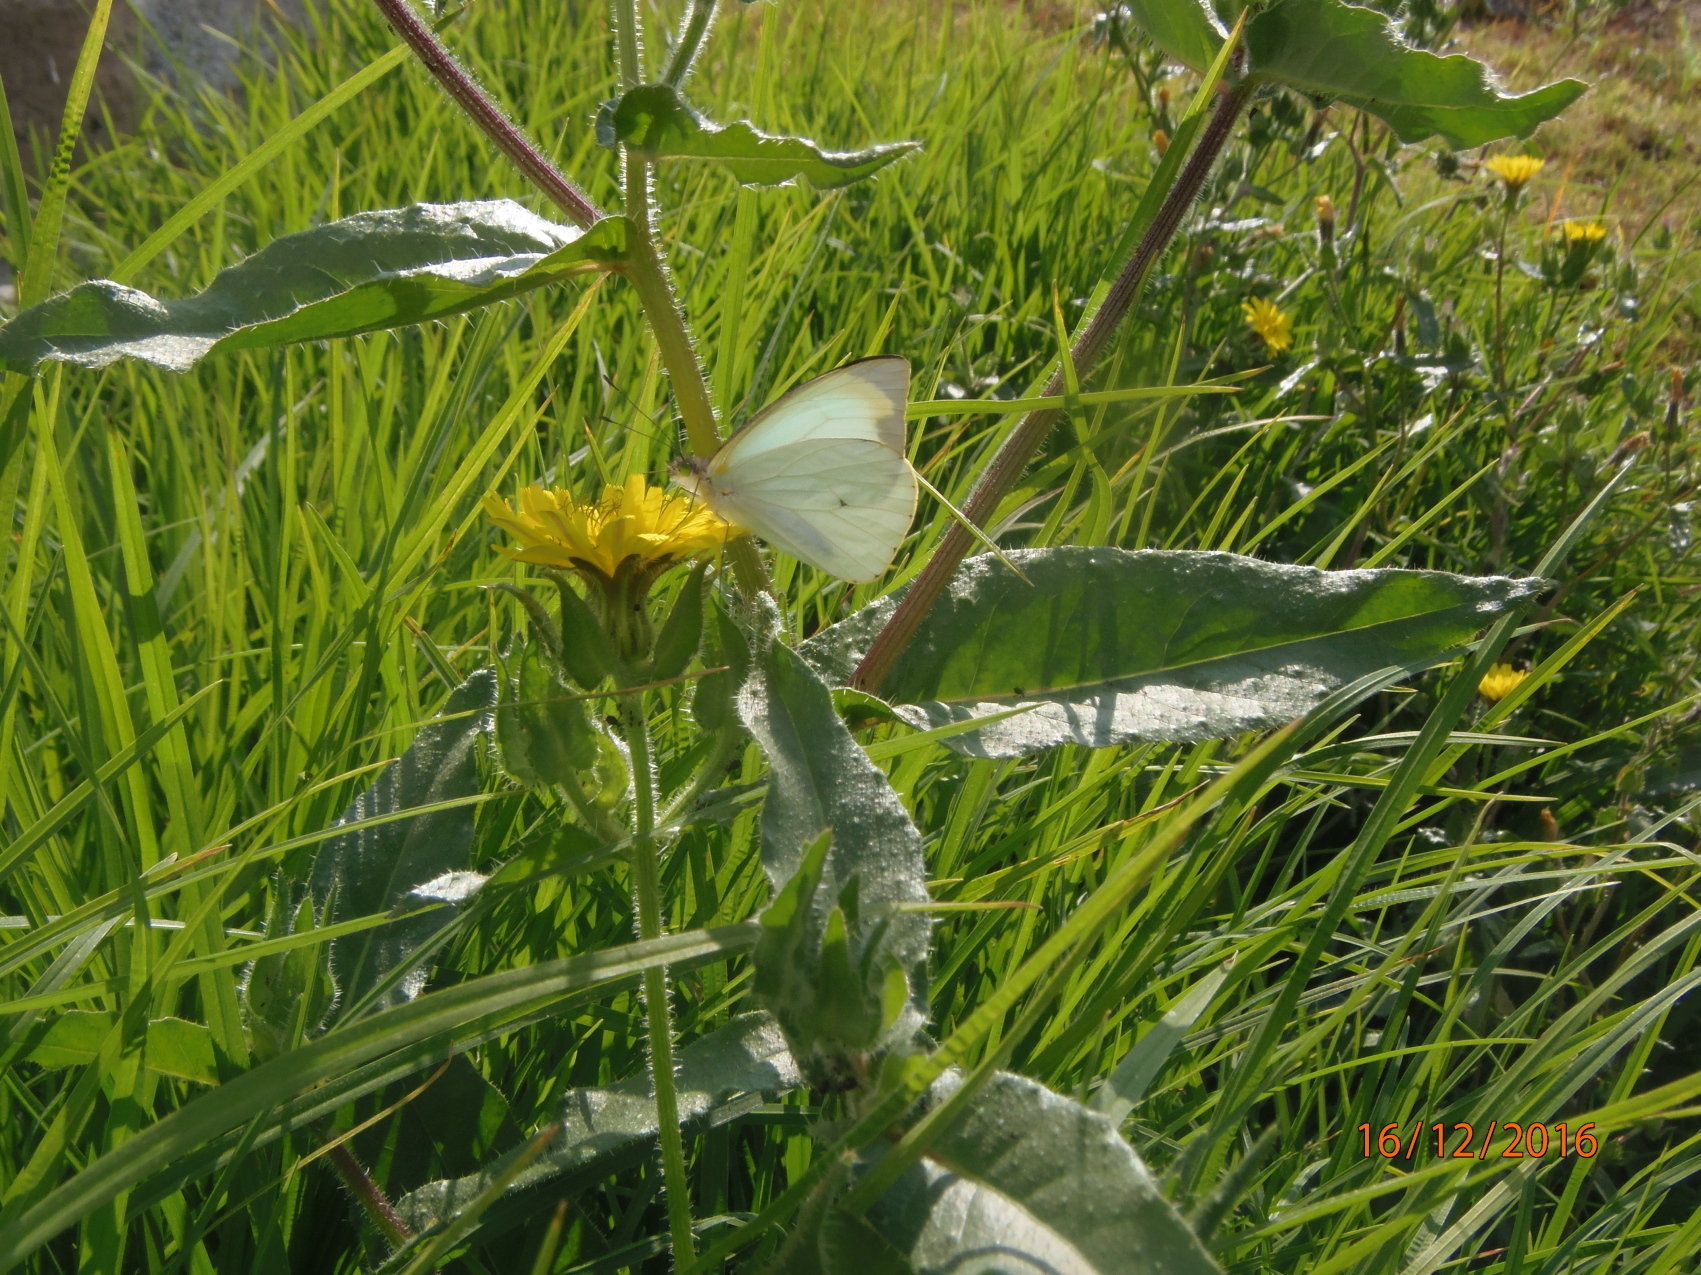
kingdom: Animalia
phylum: Arthropoda
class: Insecta
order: Lepidoptera
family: Pieridae
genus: Leptophobia
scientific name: Leptophobia aripa
